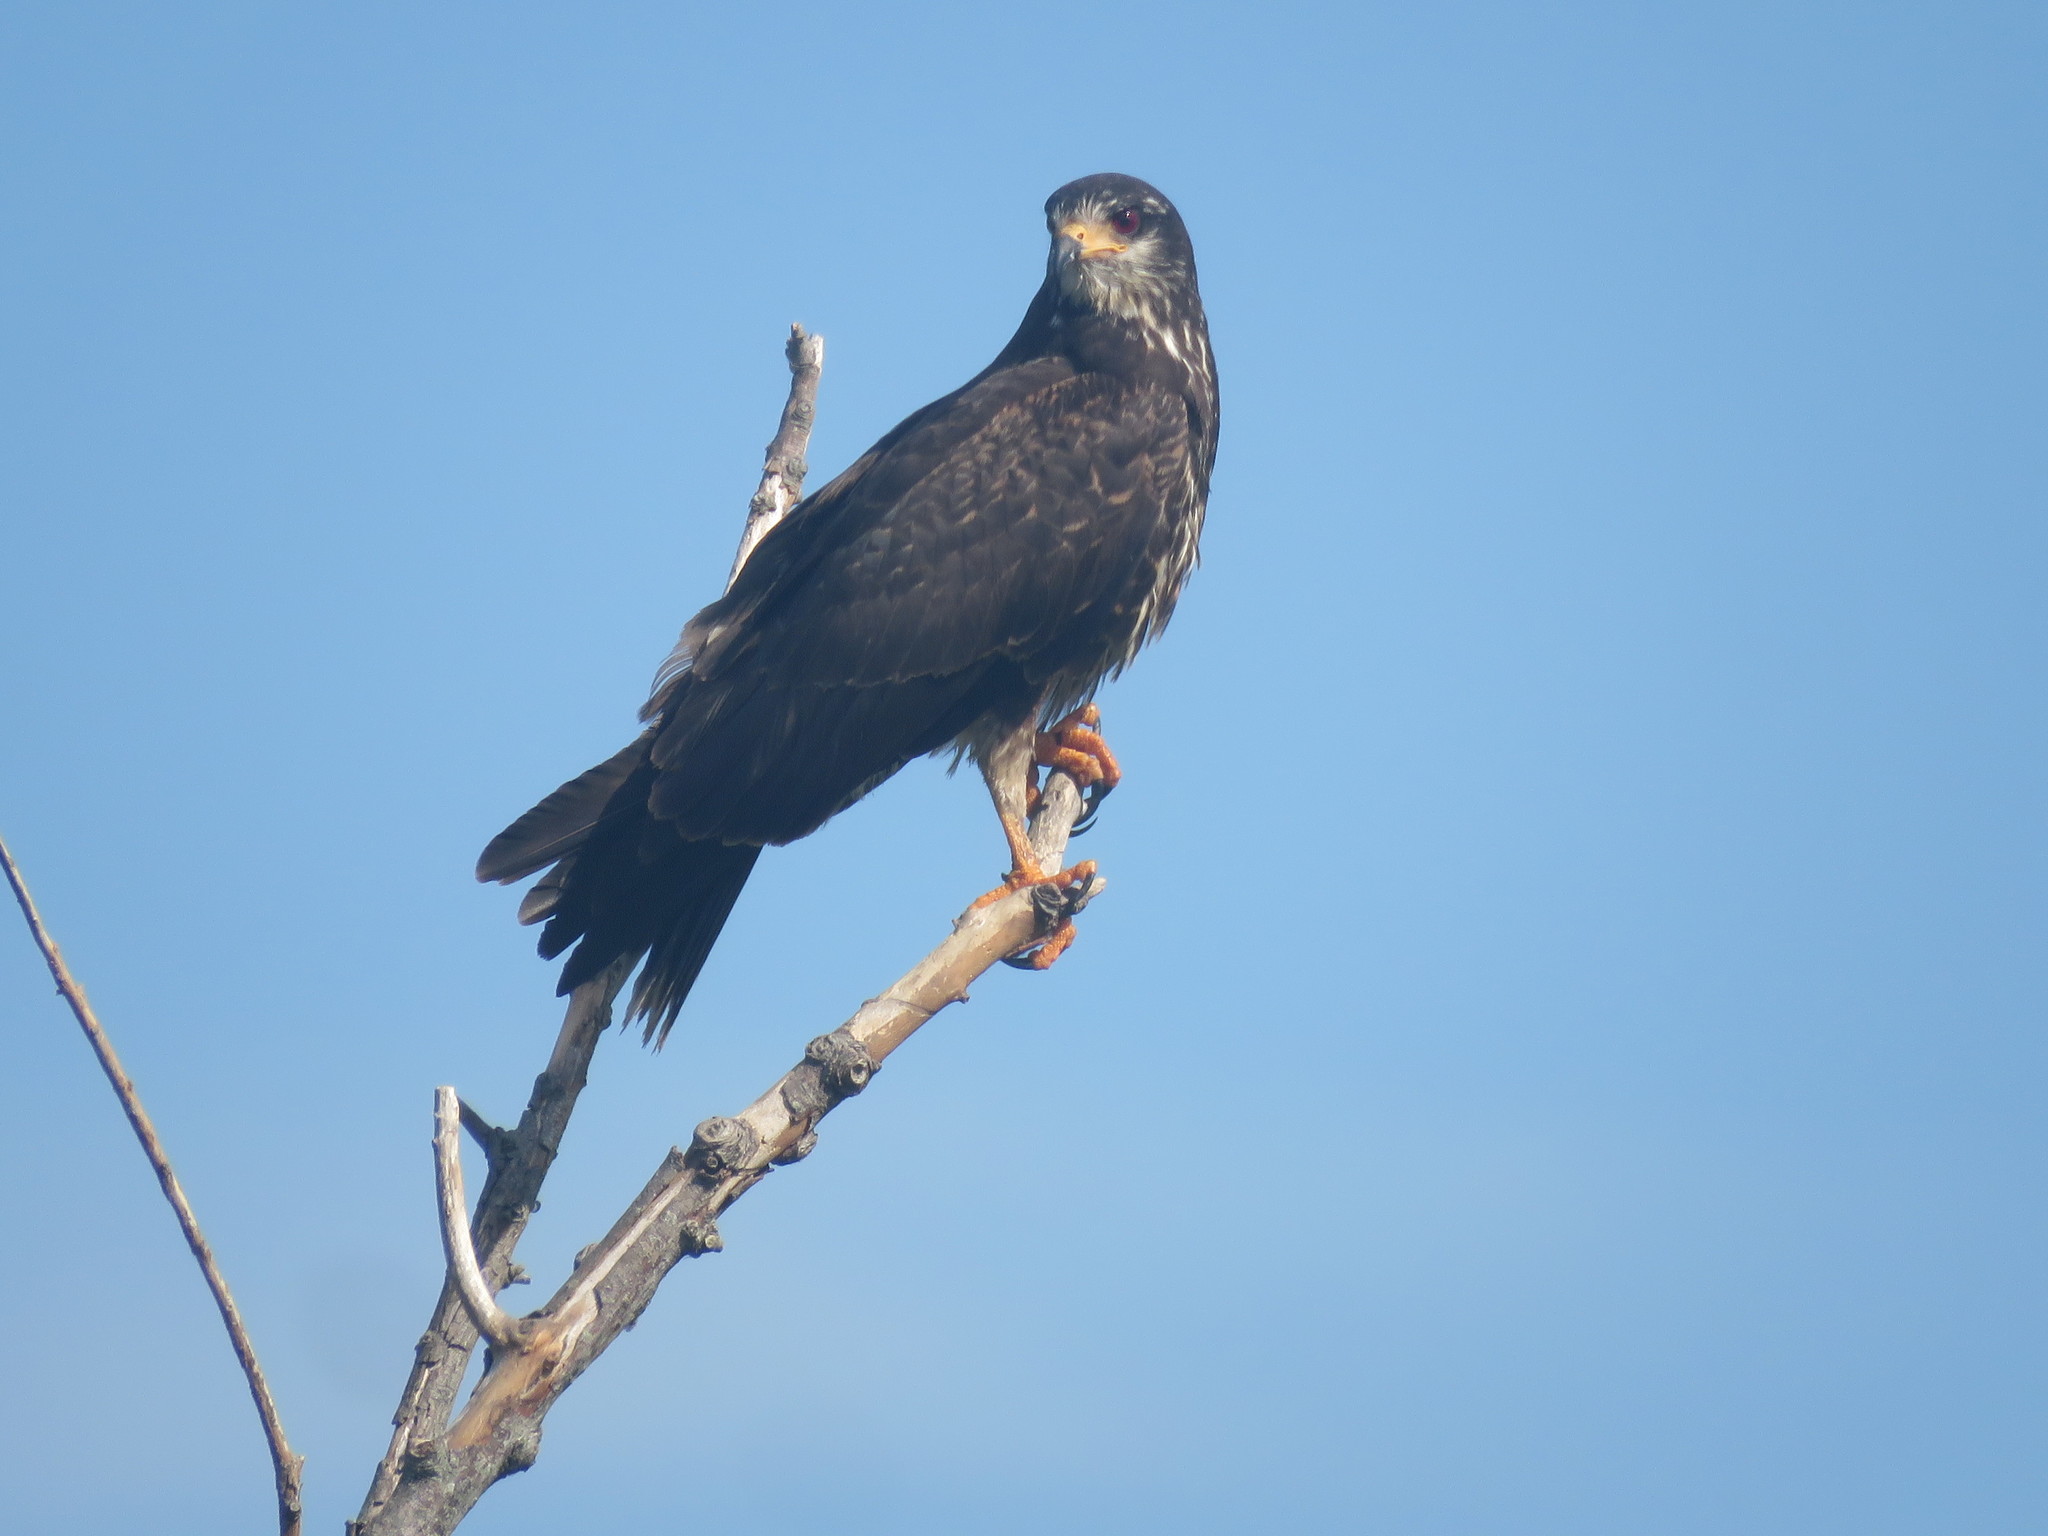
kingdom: Animalia
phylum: Chordata
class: Aves
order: Accipitriformes
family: Accipitridae
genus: Rostrhamus
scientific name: Rostrhamus sociabilis
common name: Snail kite
